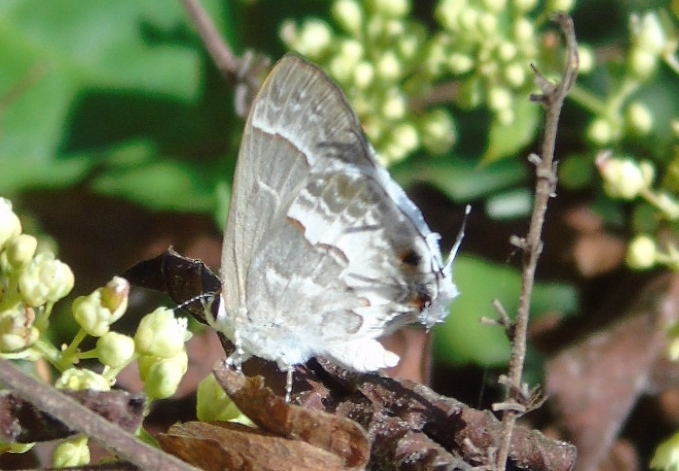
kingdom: Animalia
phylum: Arthropoda
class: Insecta
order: Lepidoptera
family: Lycaenidae
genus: Strymon
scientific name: Strymon albata
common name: White scrub-hairstreak
